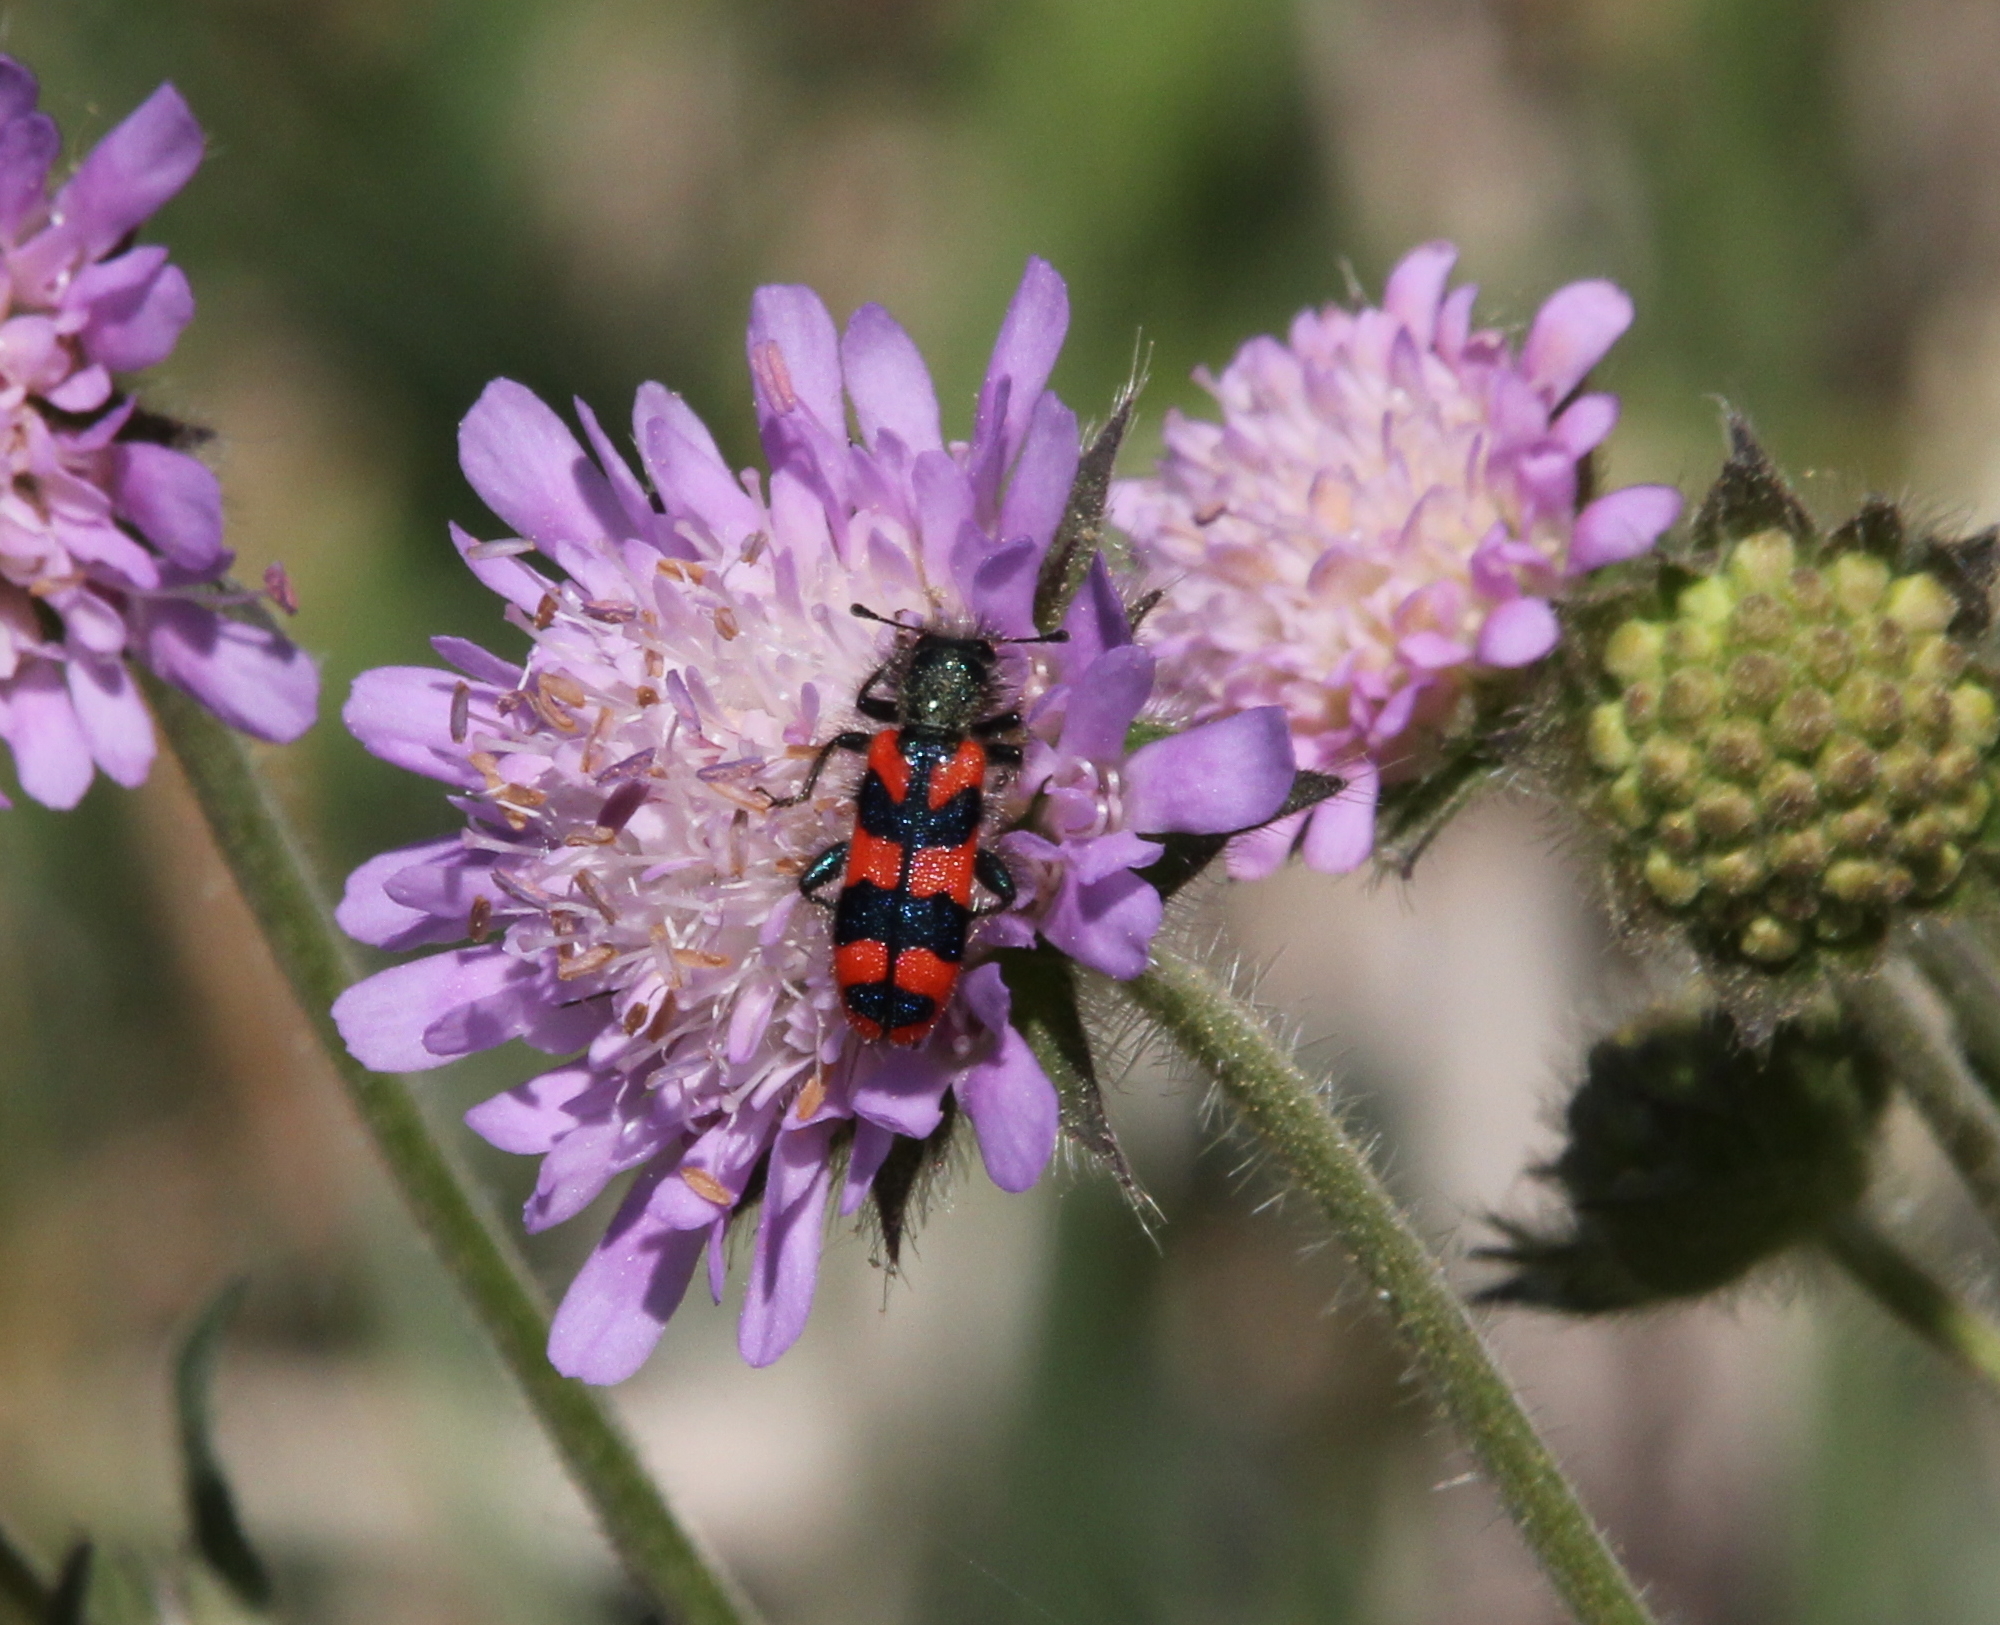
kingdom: Animalia
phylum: Arthropoda
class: Insecta
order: Coleoptera
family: Cleridae
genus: Trichodes
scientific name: Trichodes alvearius
